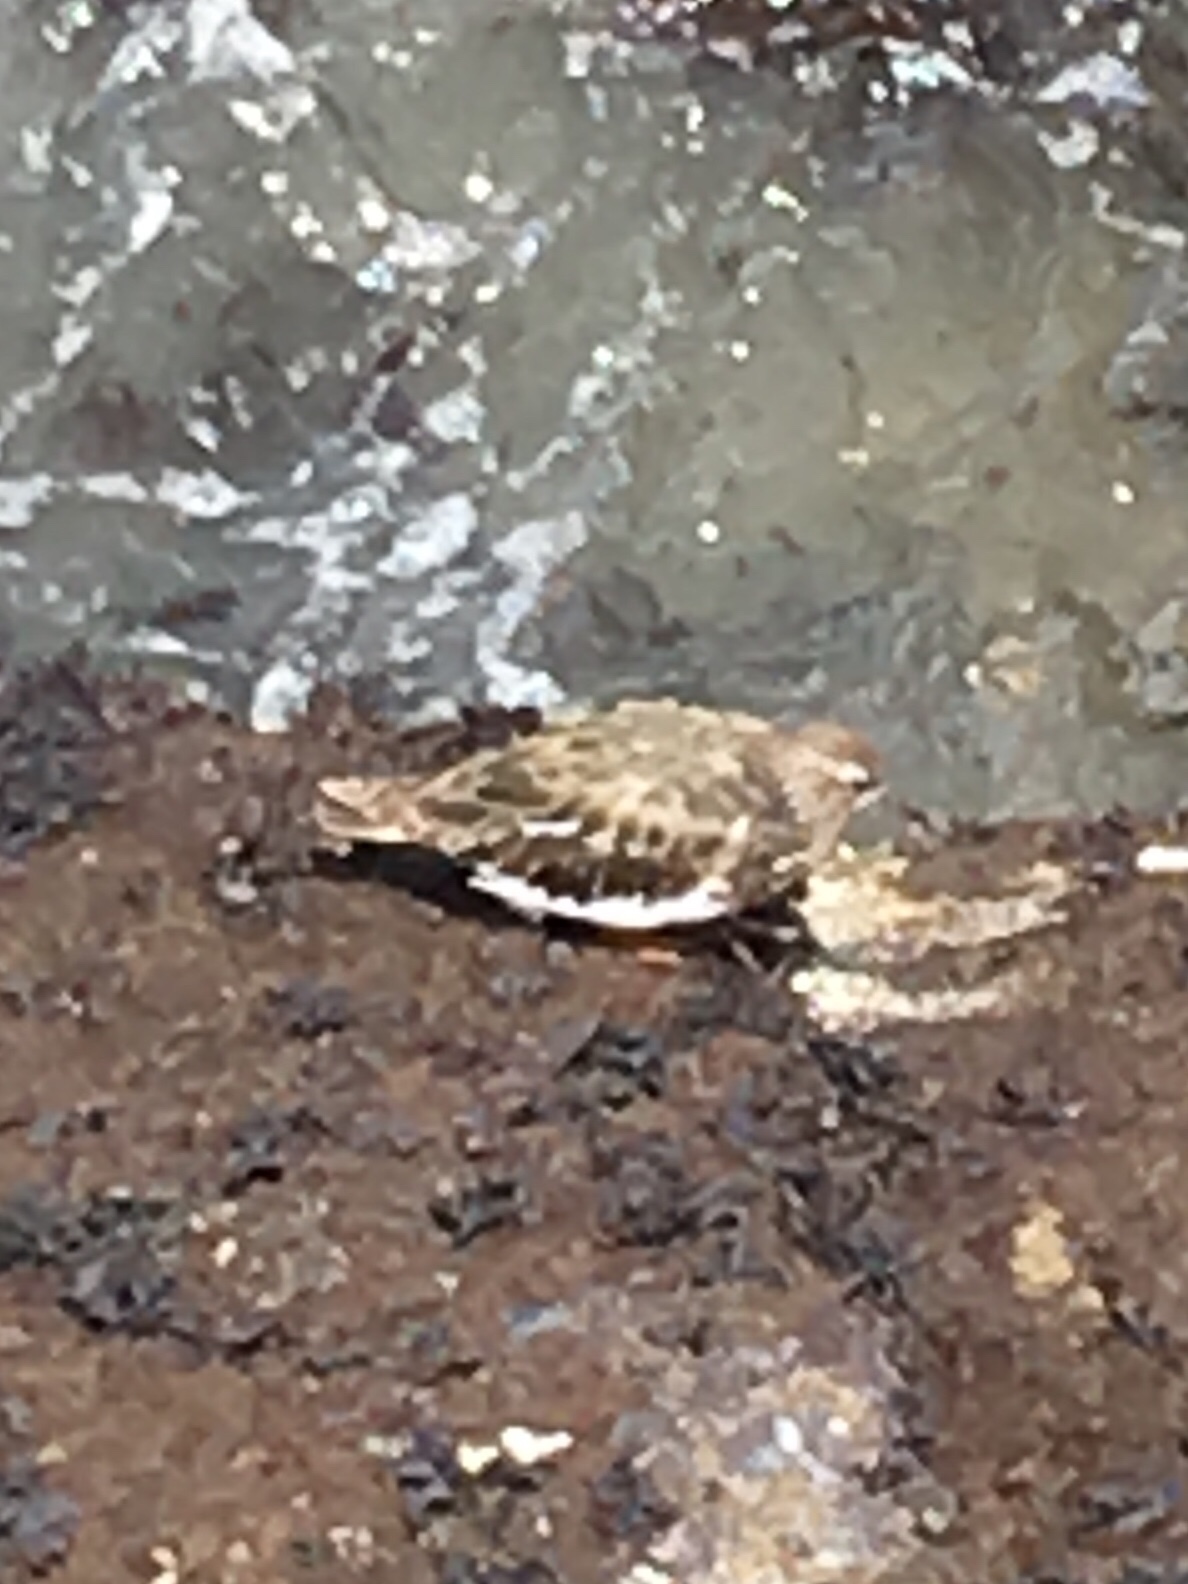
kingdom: Animalia
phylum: Chordata
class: Aves
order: Charadriiformes
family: Scolopacidae
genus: Arenaria
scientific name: Arenaria melanocephala
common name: Black turnstone
